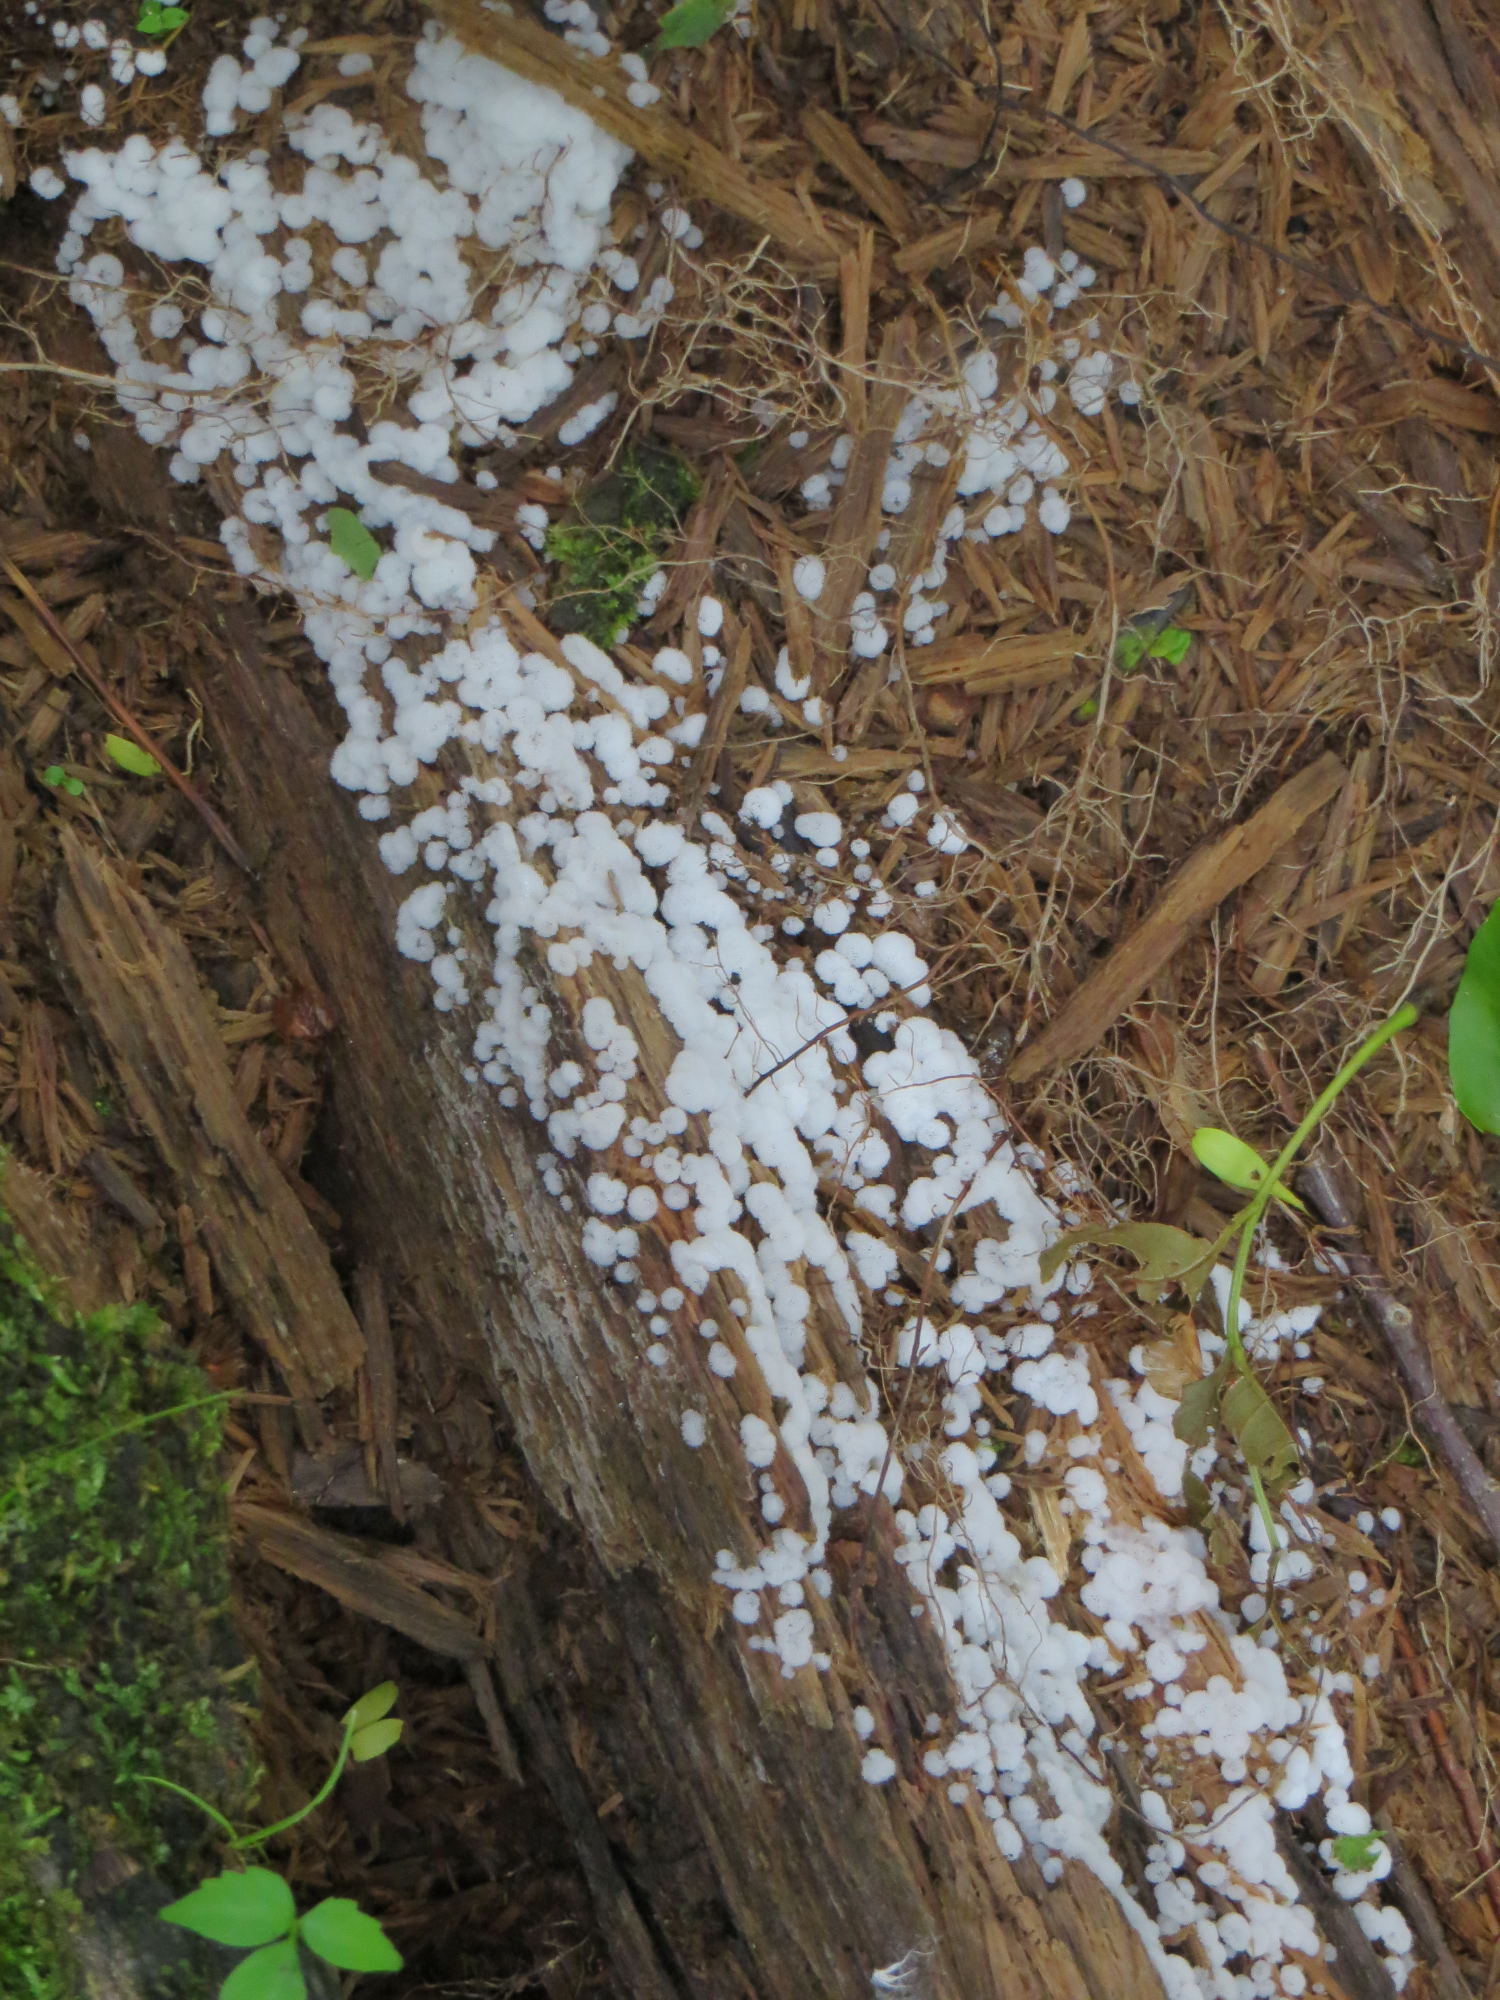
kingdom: Protozoa
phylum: Mycetozoa
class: Protosteliomycetes
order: Ceratiomyxales
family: Ceratiomyxaceae
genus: Ceratiomyxa
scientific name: Ceratiomyxa fruticulosa
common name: Honeycomb coral slime mold
